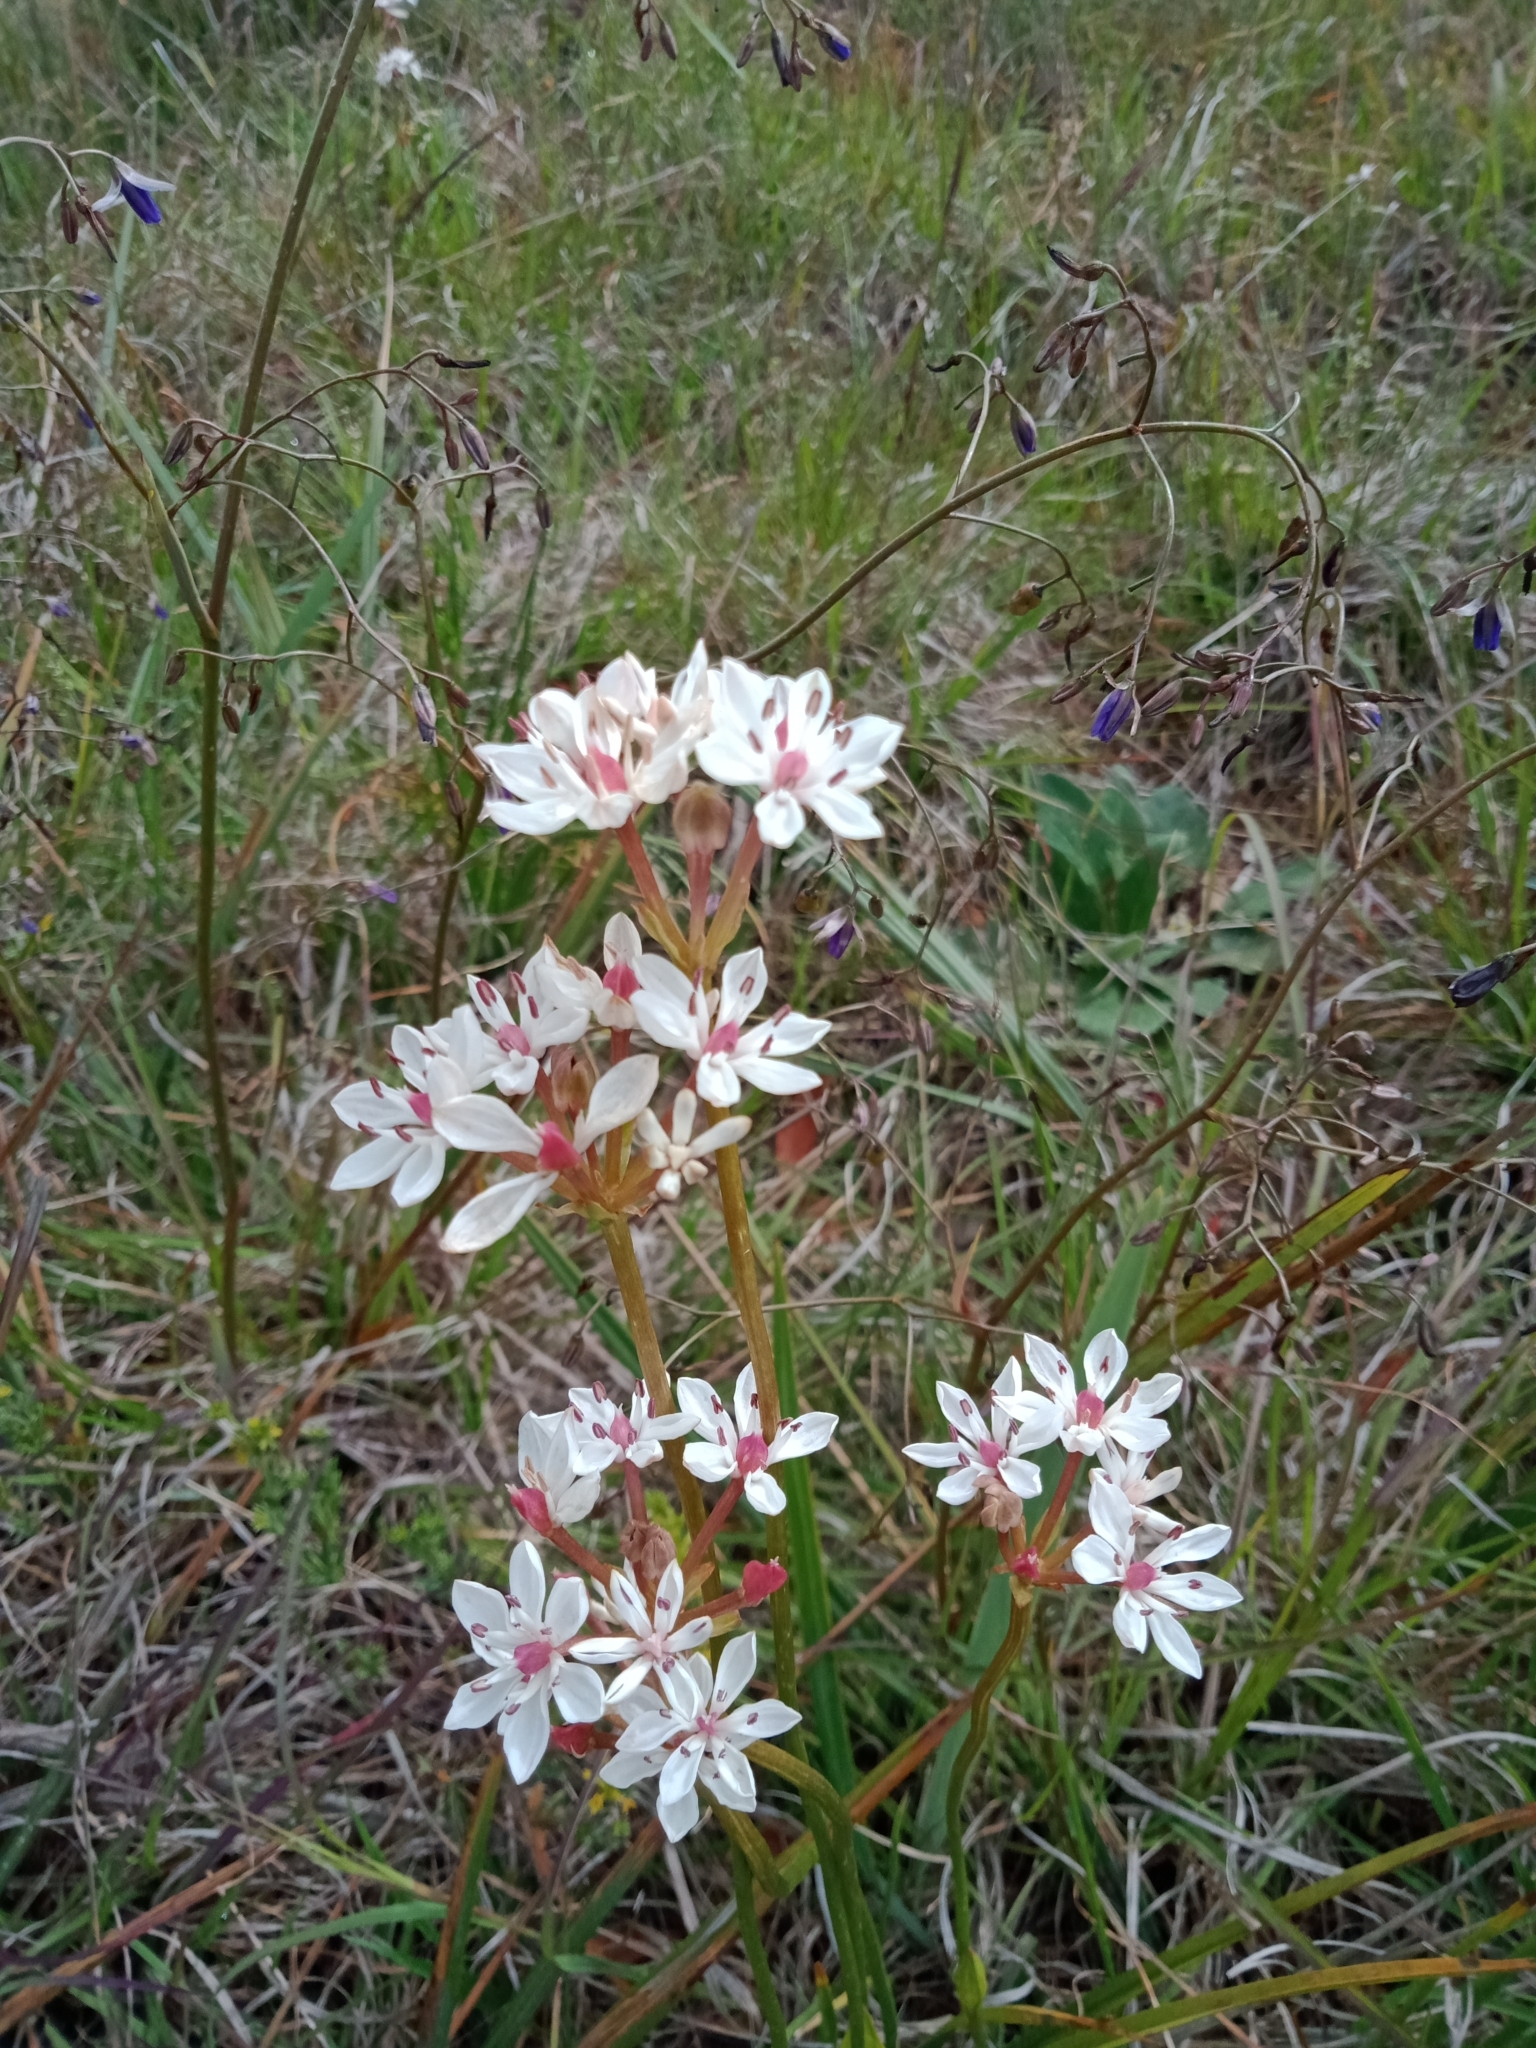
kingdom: Plantae
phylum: Tracheophyta
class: Liliopsida
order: Liliales
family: Colchicaceae
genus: Burchardia
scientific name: Burchardia umbellata
